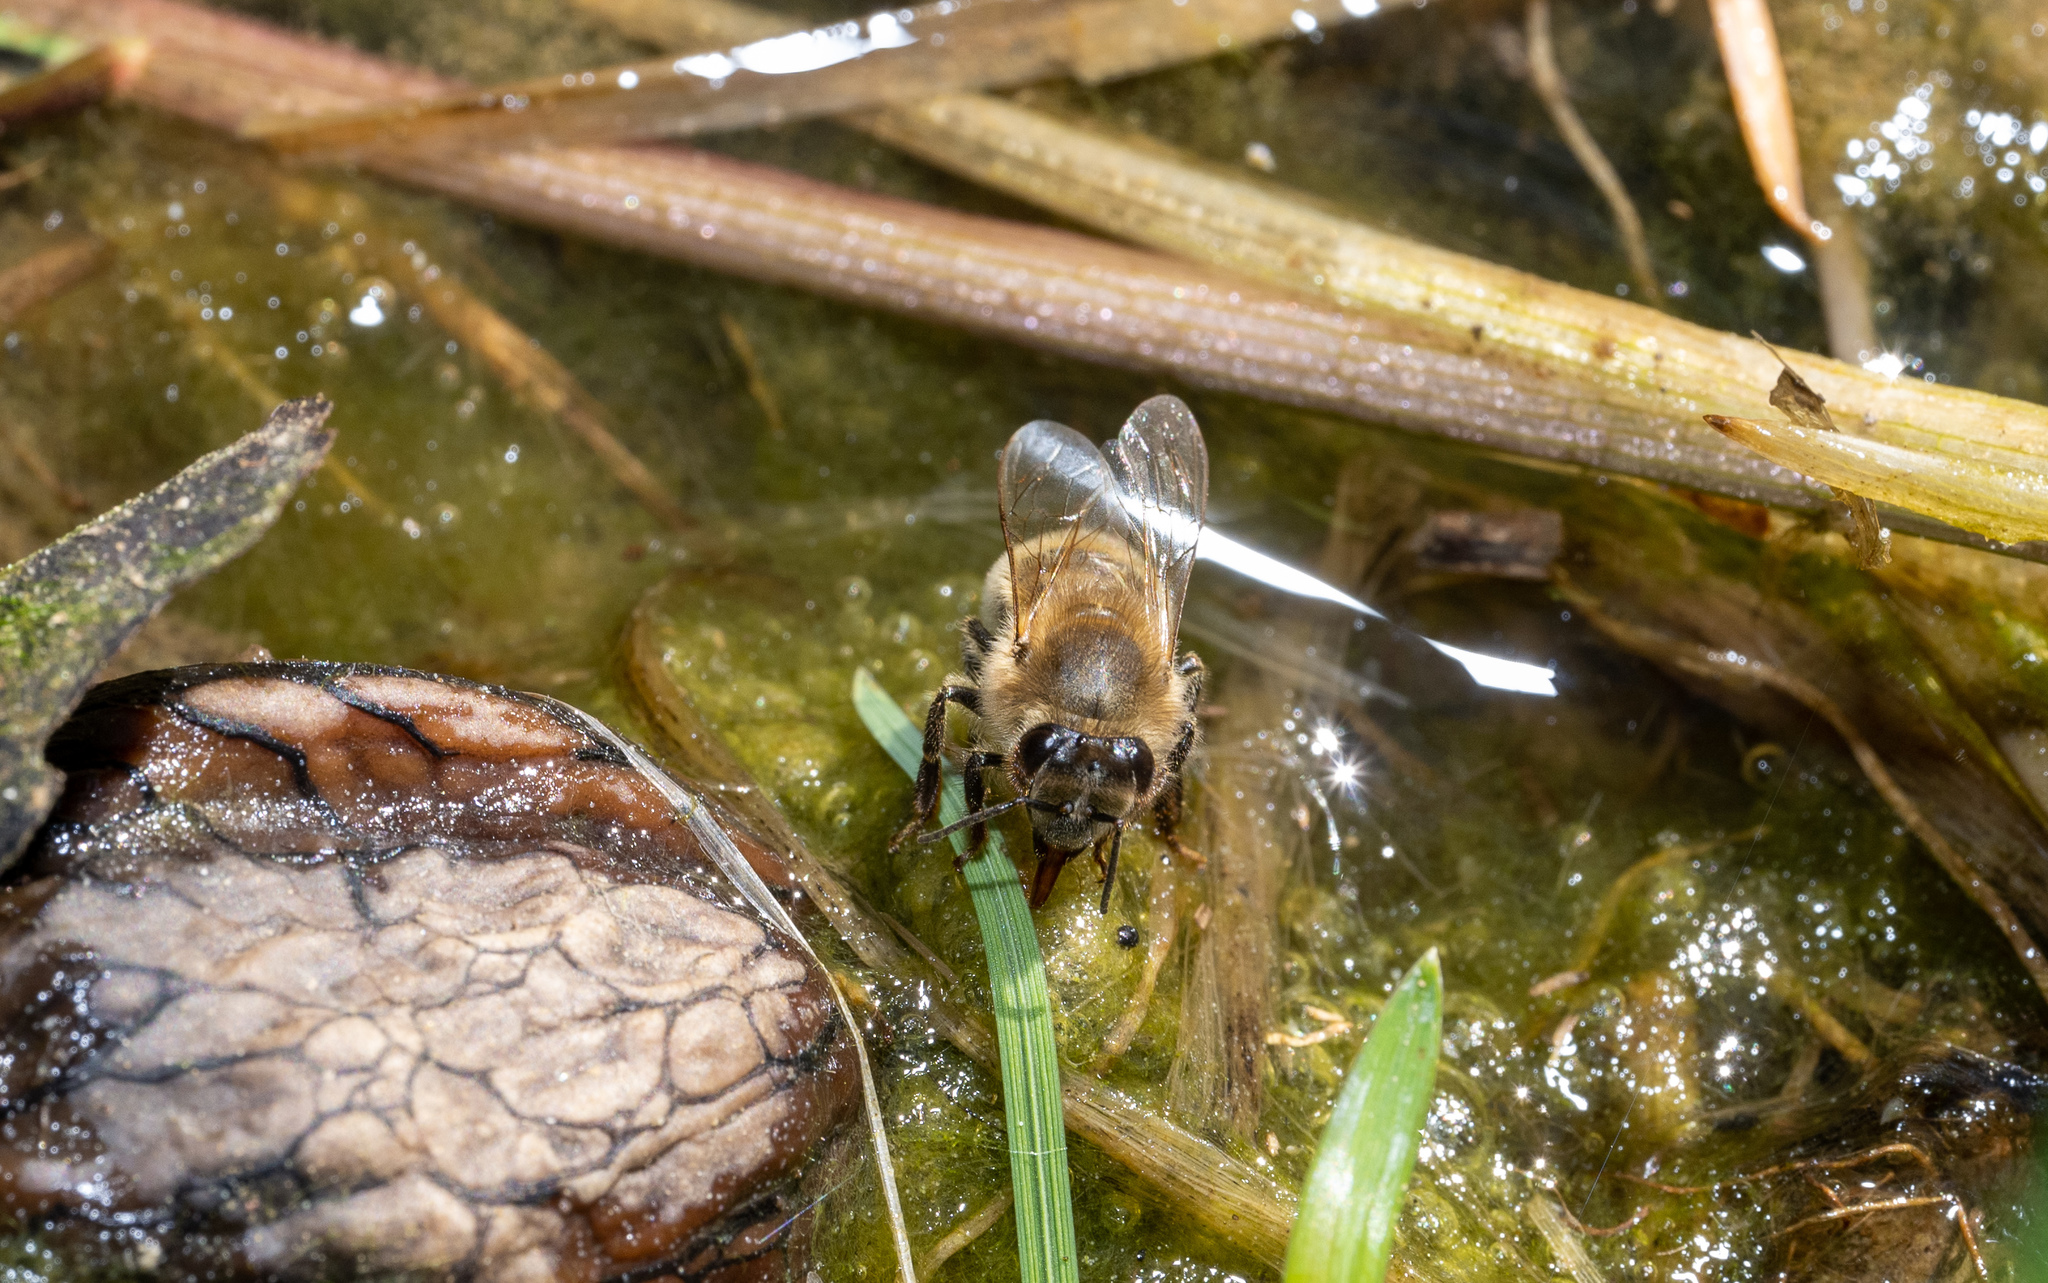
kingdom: Animalia
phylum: Arthropoda
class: Insecta
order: Hymenoptera
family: Apidae
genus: Apis
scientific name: Apis mellifera
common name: Honey bee
